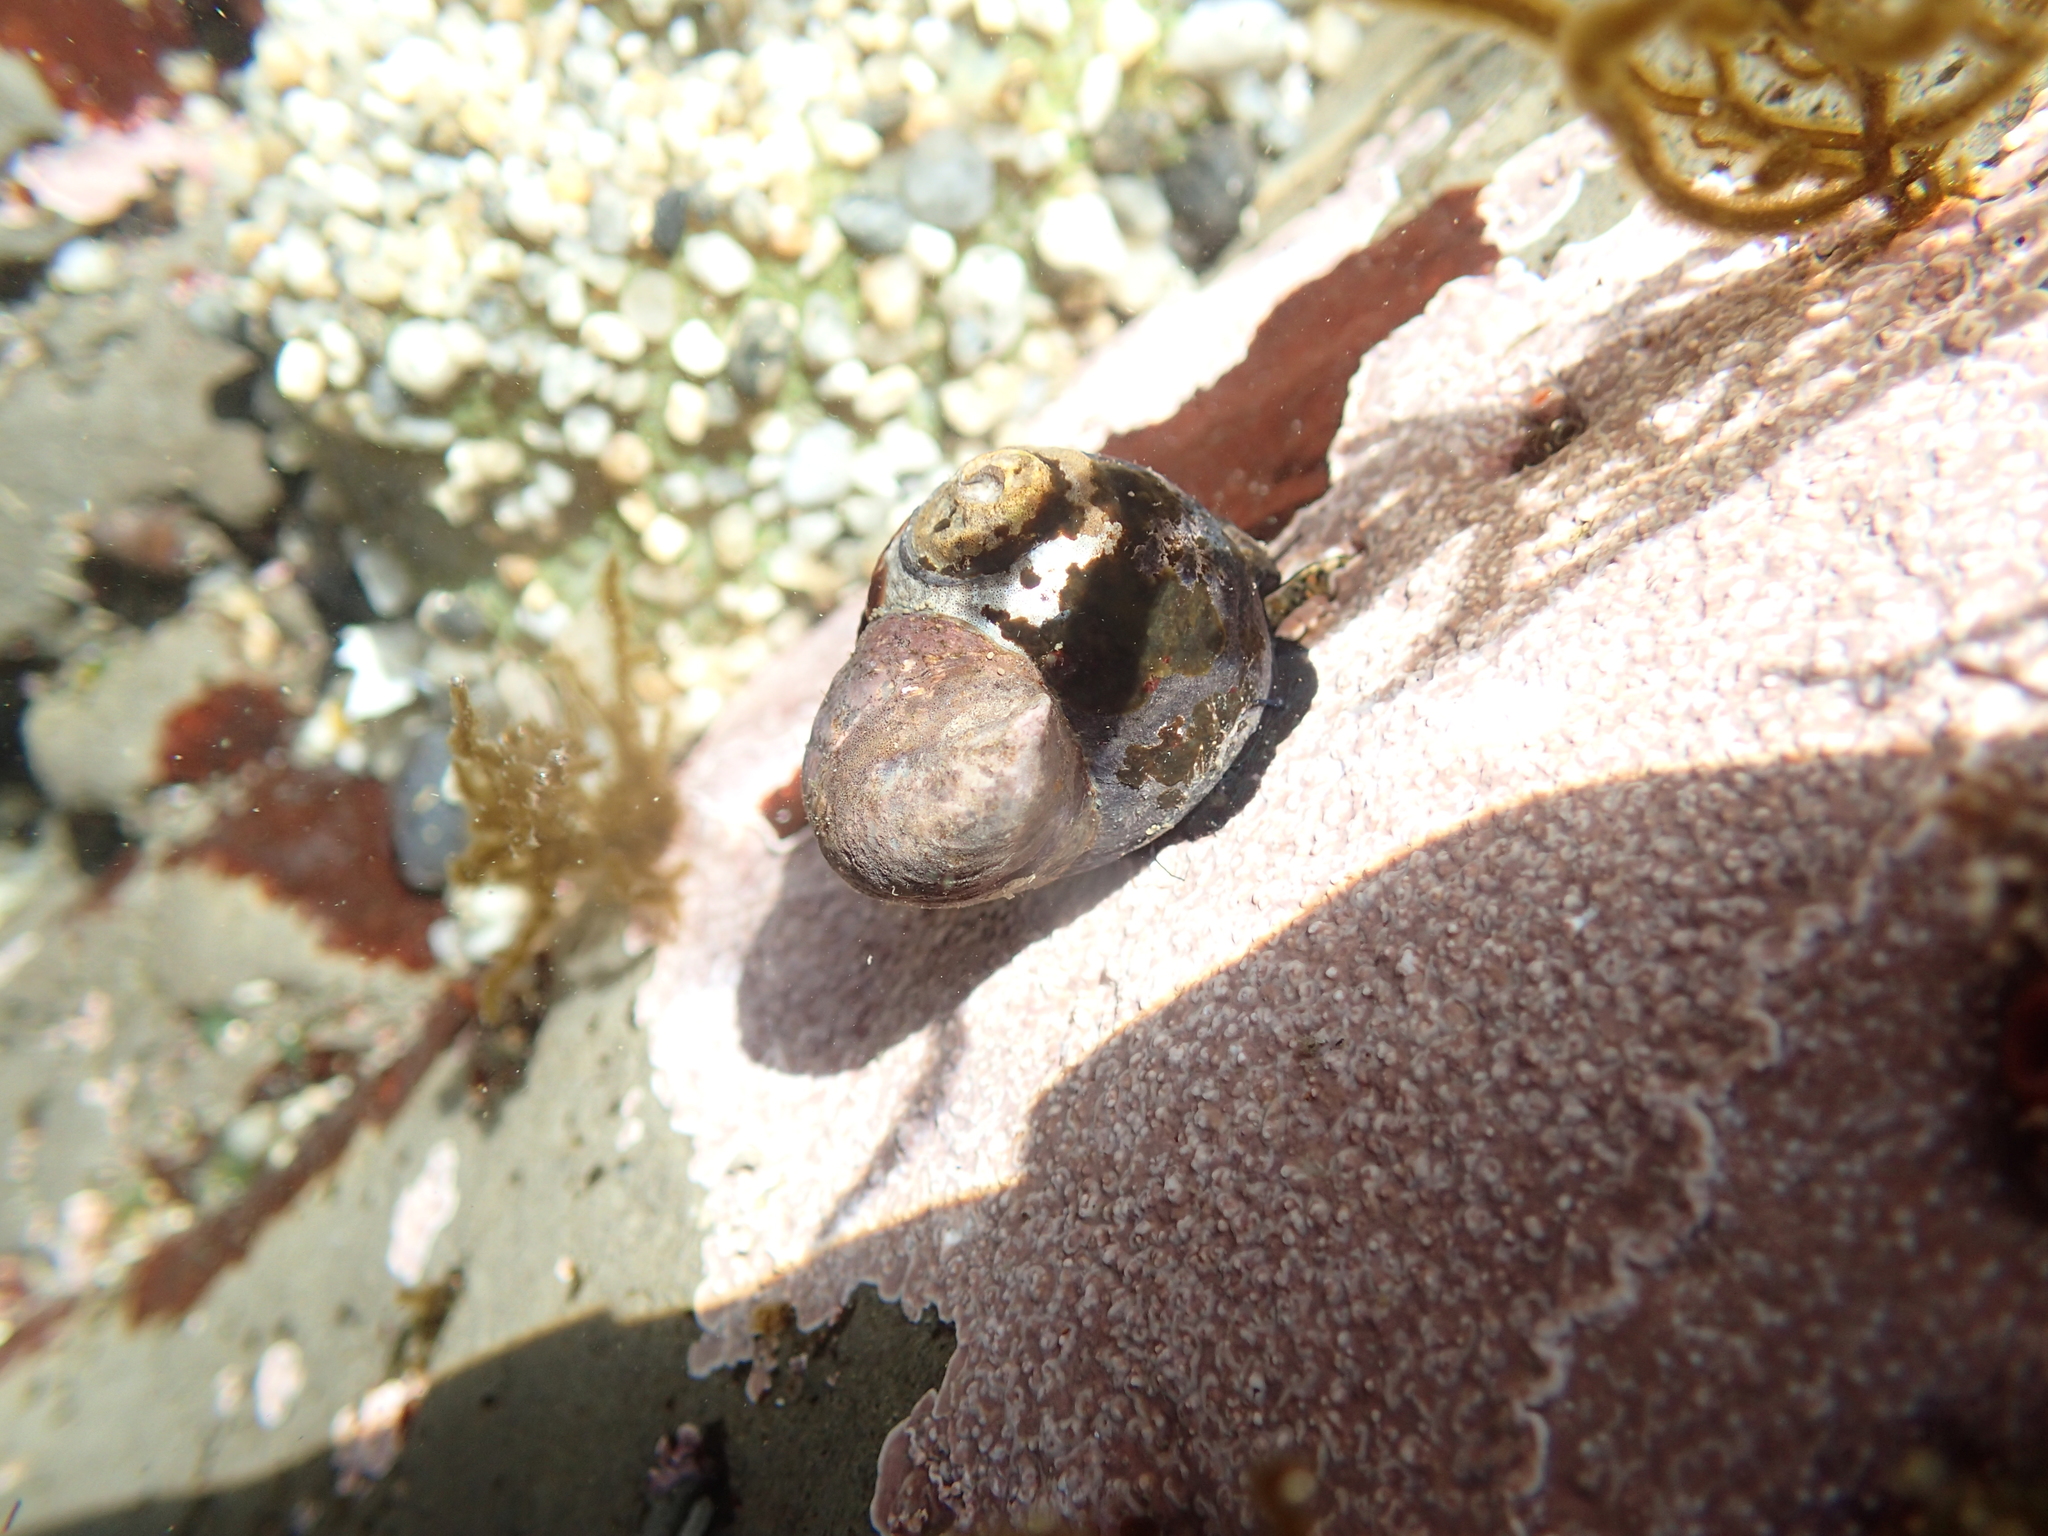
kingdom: Animalia
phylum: Mollusca
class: Gastropoda
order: Trochida
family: Tegulidae
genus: Tegula
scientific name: Tegula funebralis
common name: Black tegula
